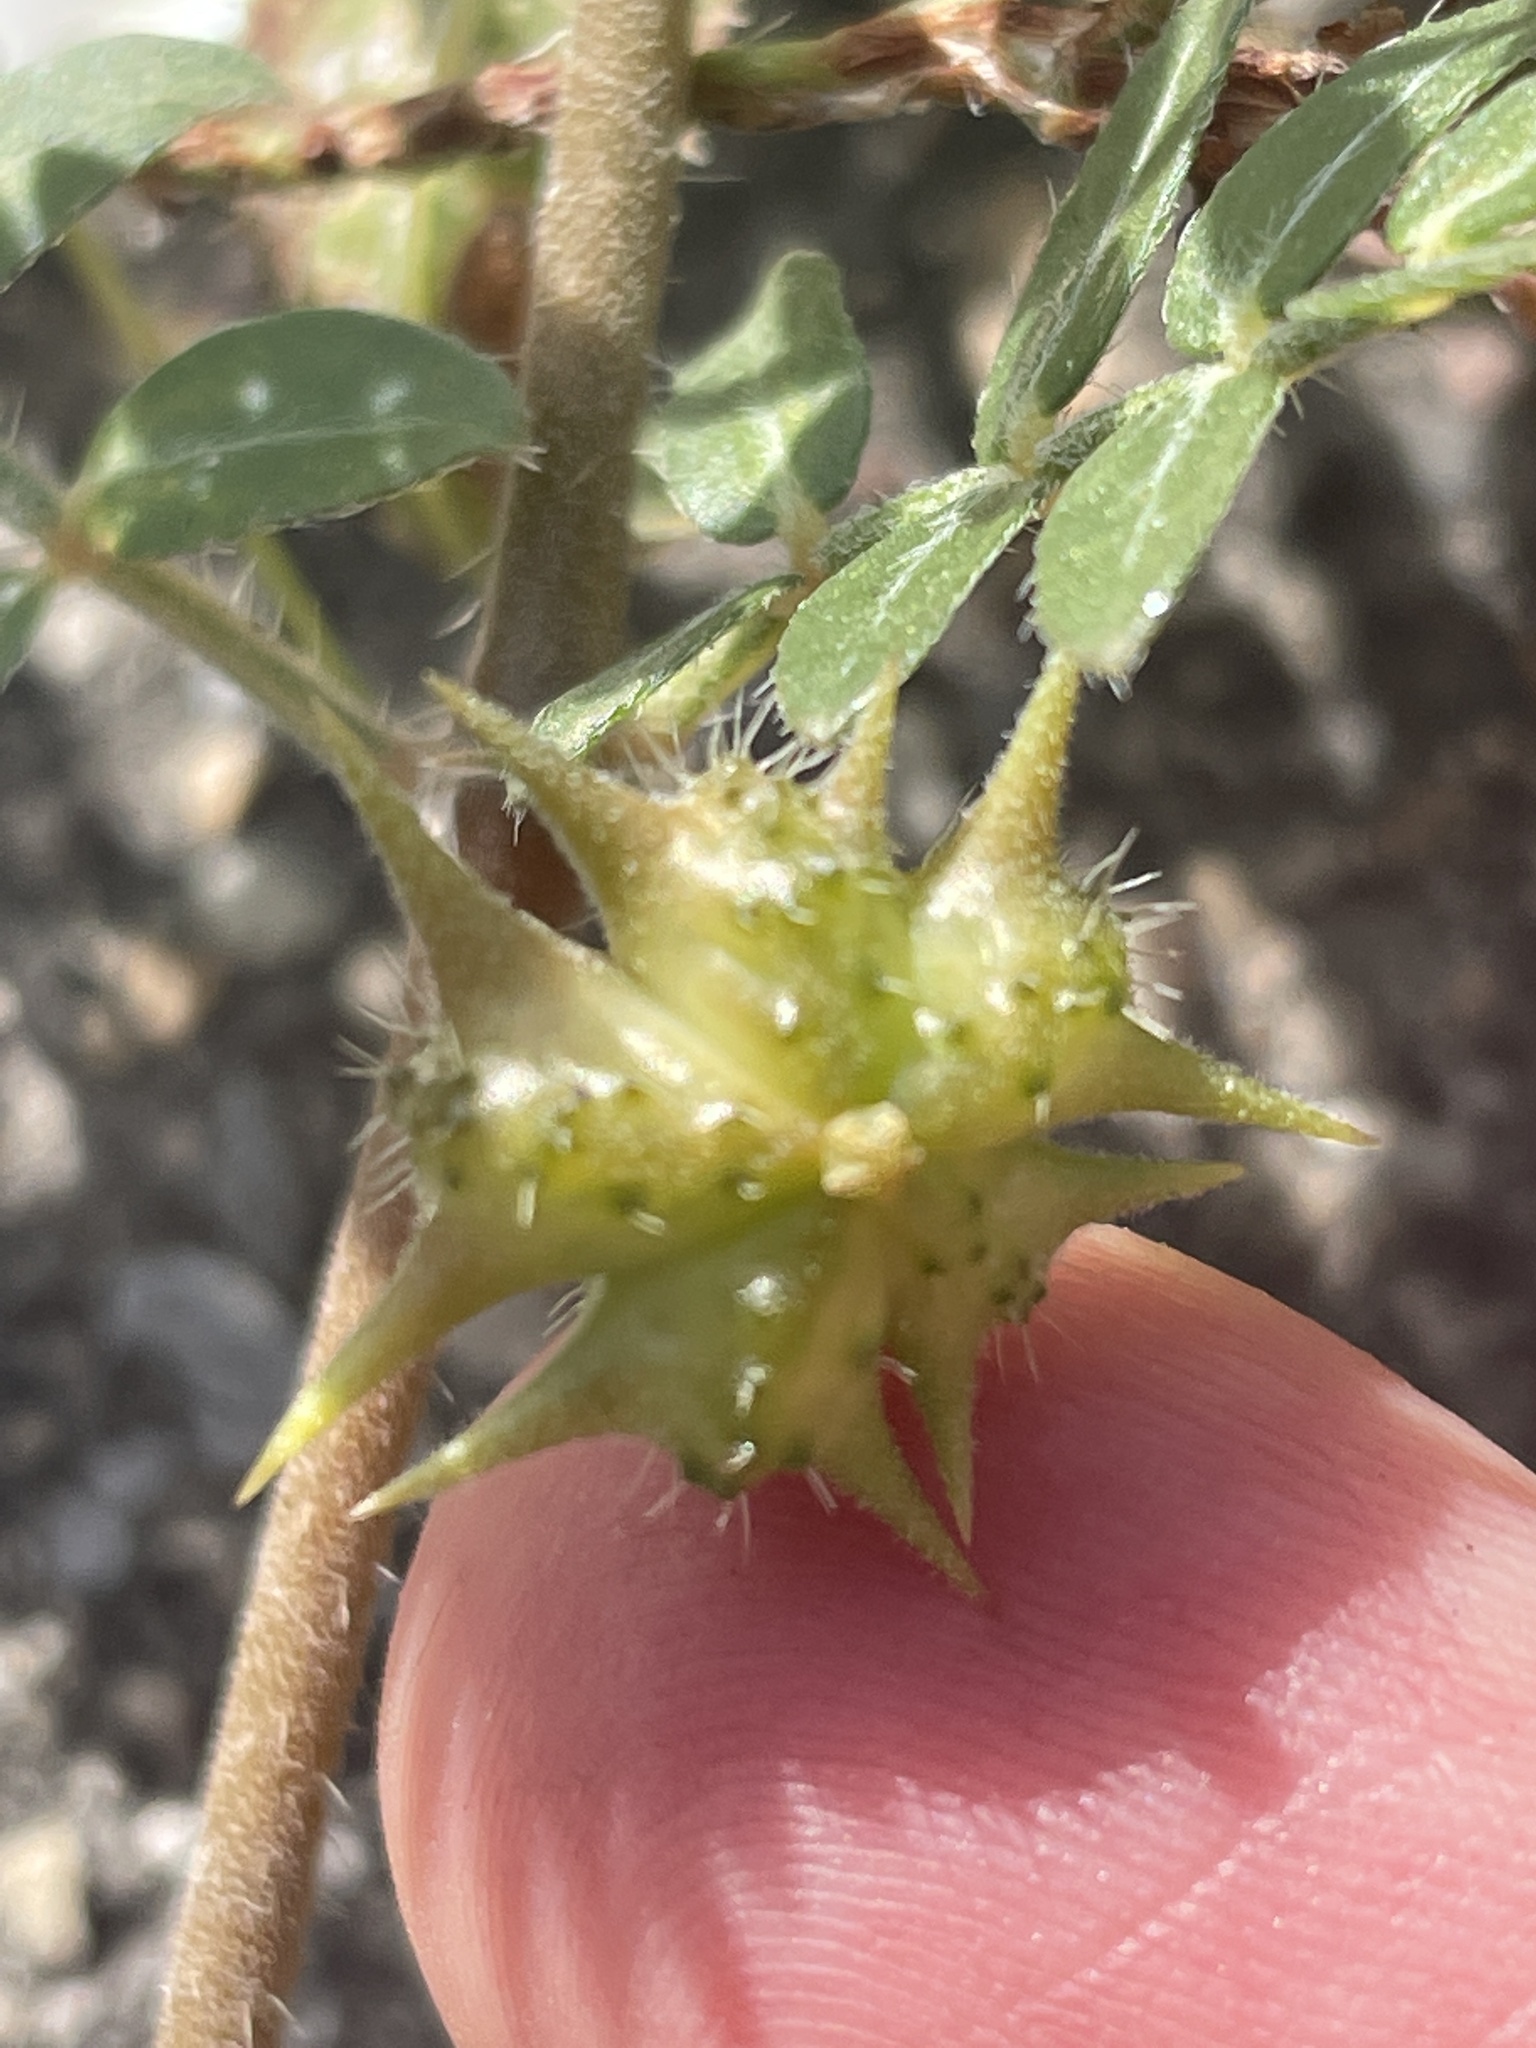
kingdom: Plantae
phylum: Tracheophyta
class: Magnoliopsida
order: Zygophyllales
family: Zygophyllaceae
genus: Tribulus
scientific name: Tribulus terrestris
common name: Puncturevine
